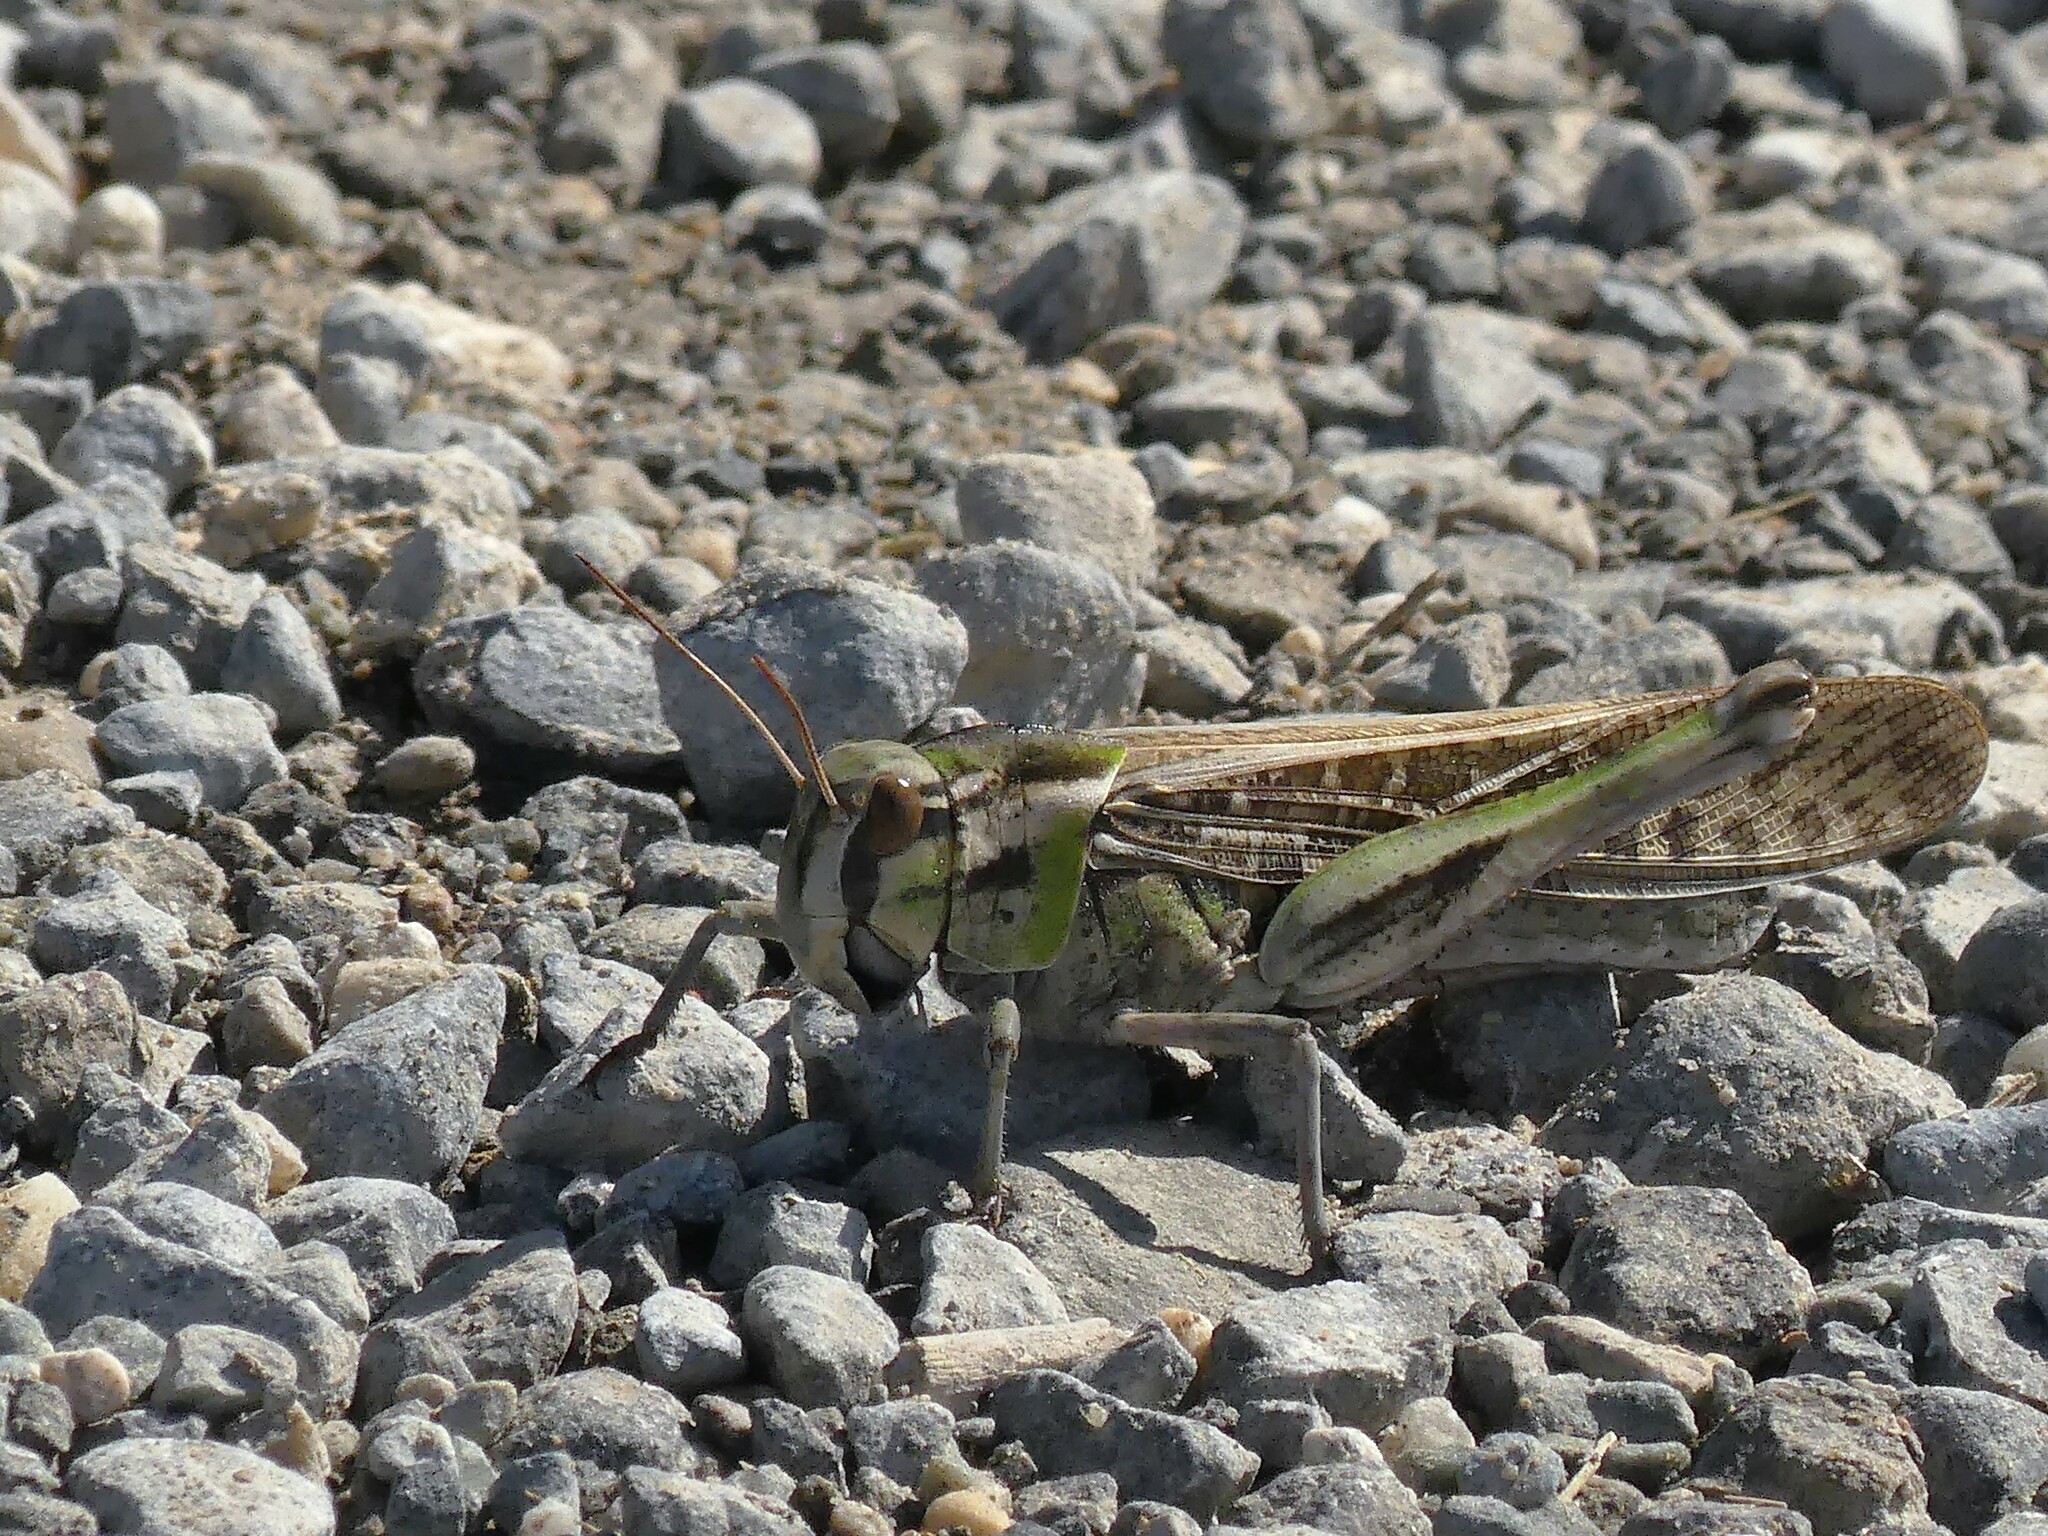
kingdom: Animalia
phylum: Arthropoda
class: Insecta
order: Orthoptera
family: Acrididae
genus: Locusta
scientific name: Locusta migratoria
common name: Migratory locust
